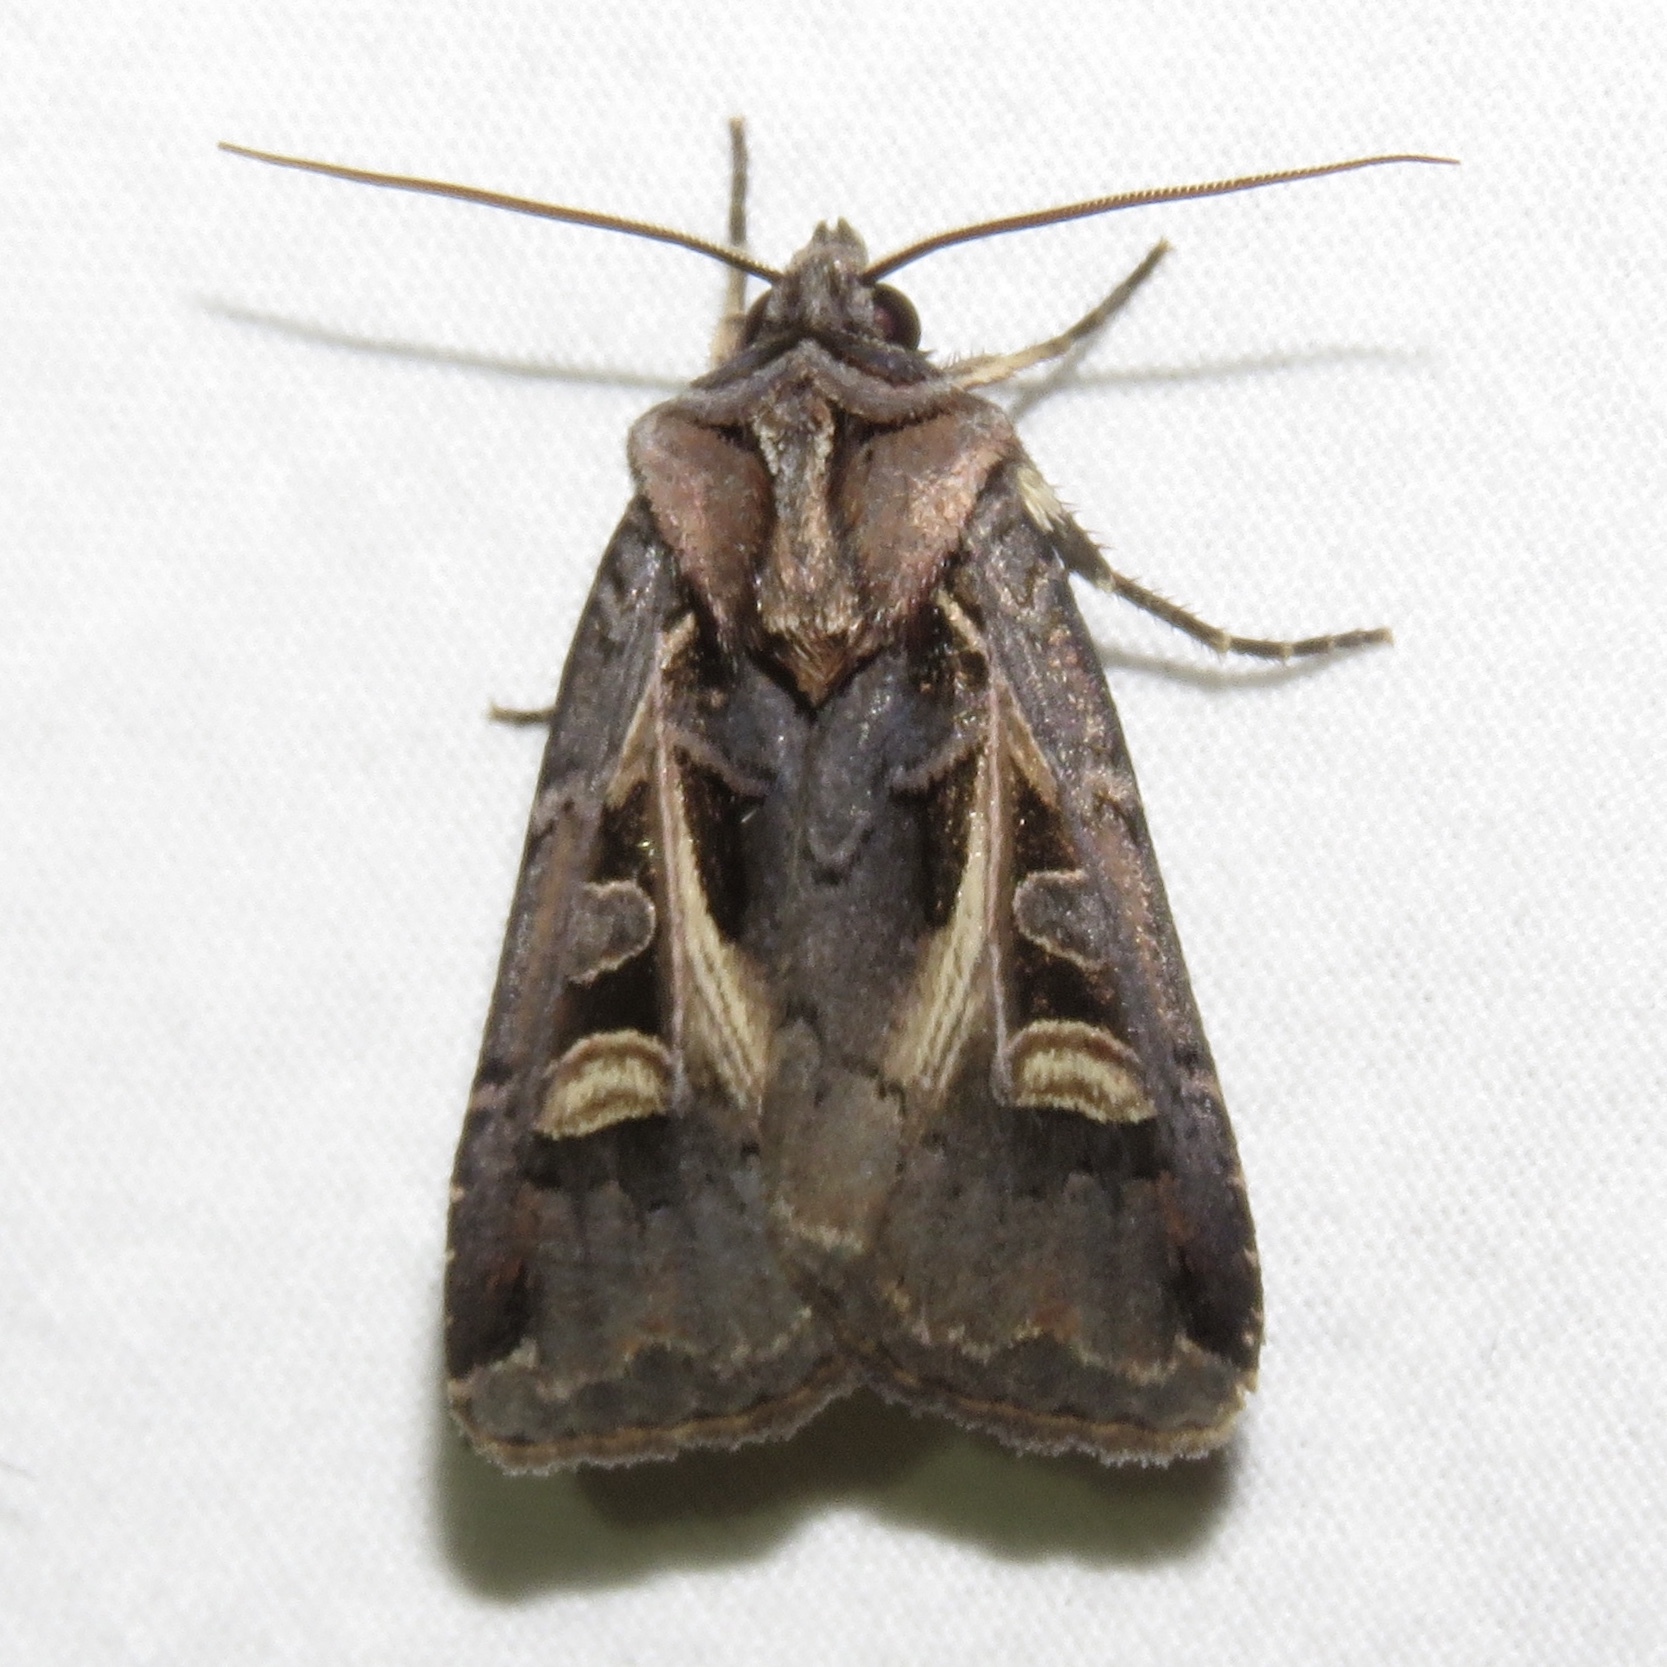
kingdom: Animalia
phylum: Arthropoda
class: Insecta
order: Lepidoptera
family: Noctuidae
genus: Feltia
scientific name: Feltia herilis
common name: Master's dart
